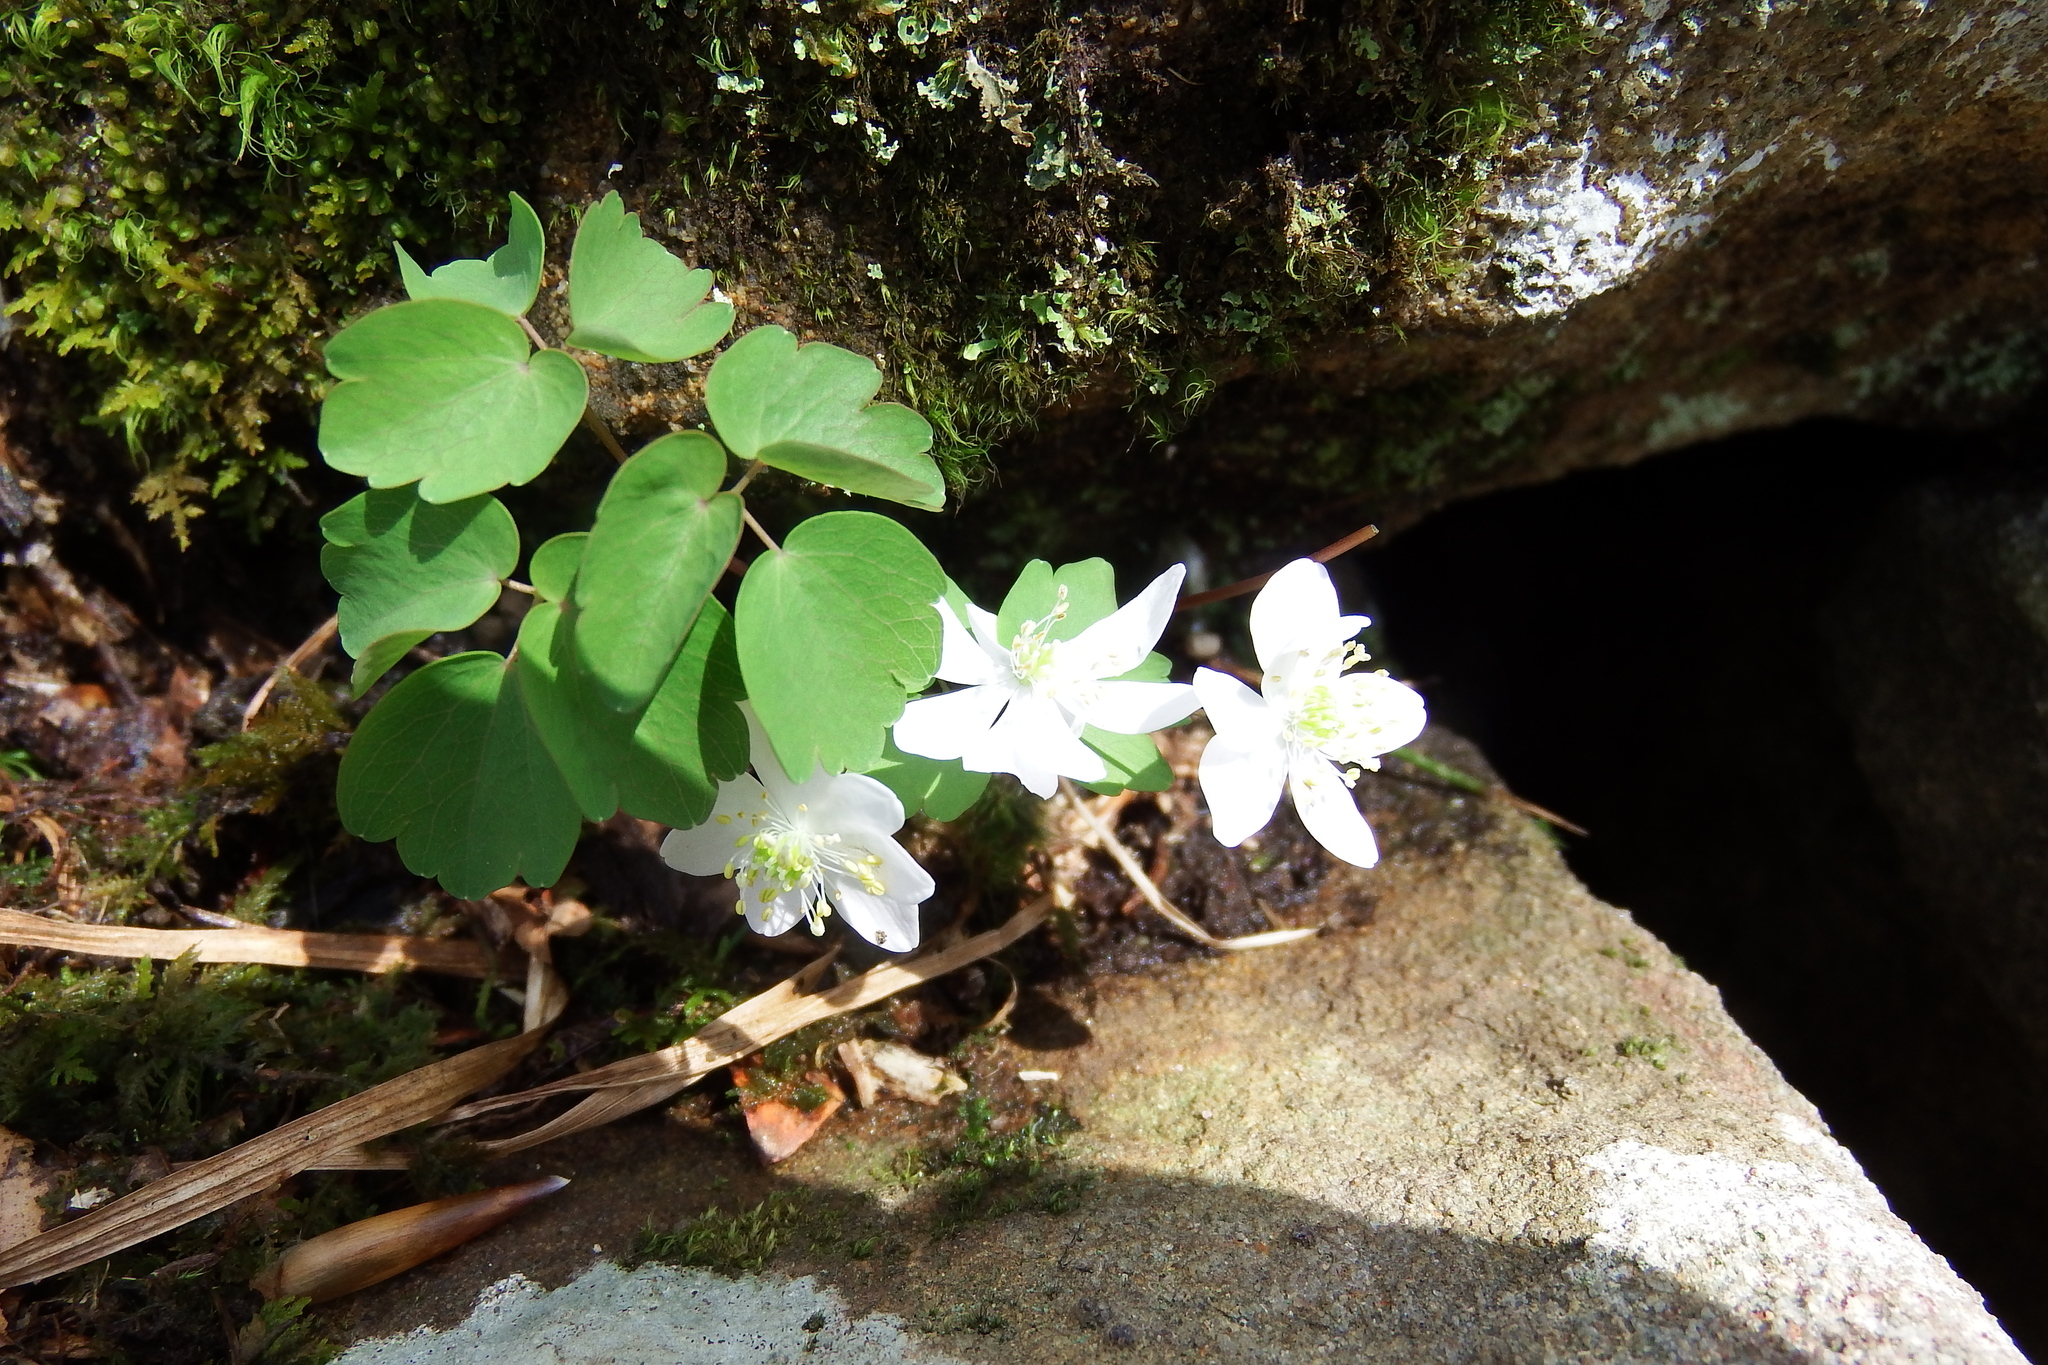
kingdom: Plantae
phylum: Tracheophyta
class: Magnoliopsida
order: Ranunculales
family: Ranunculaceae
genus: Thalictrum
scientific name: Thalictrum thalictroides
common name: Rue-anemone
